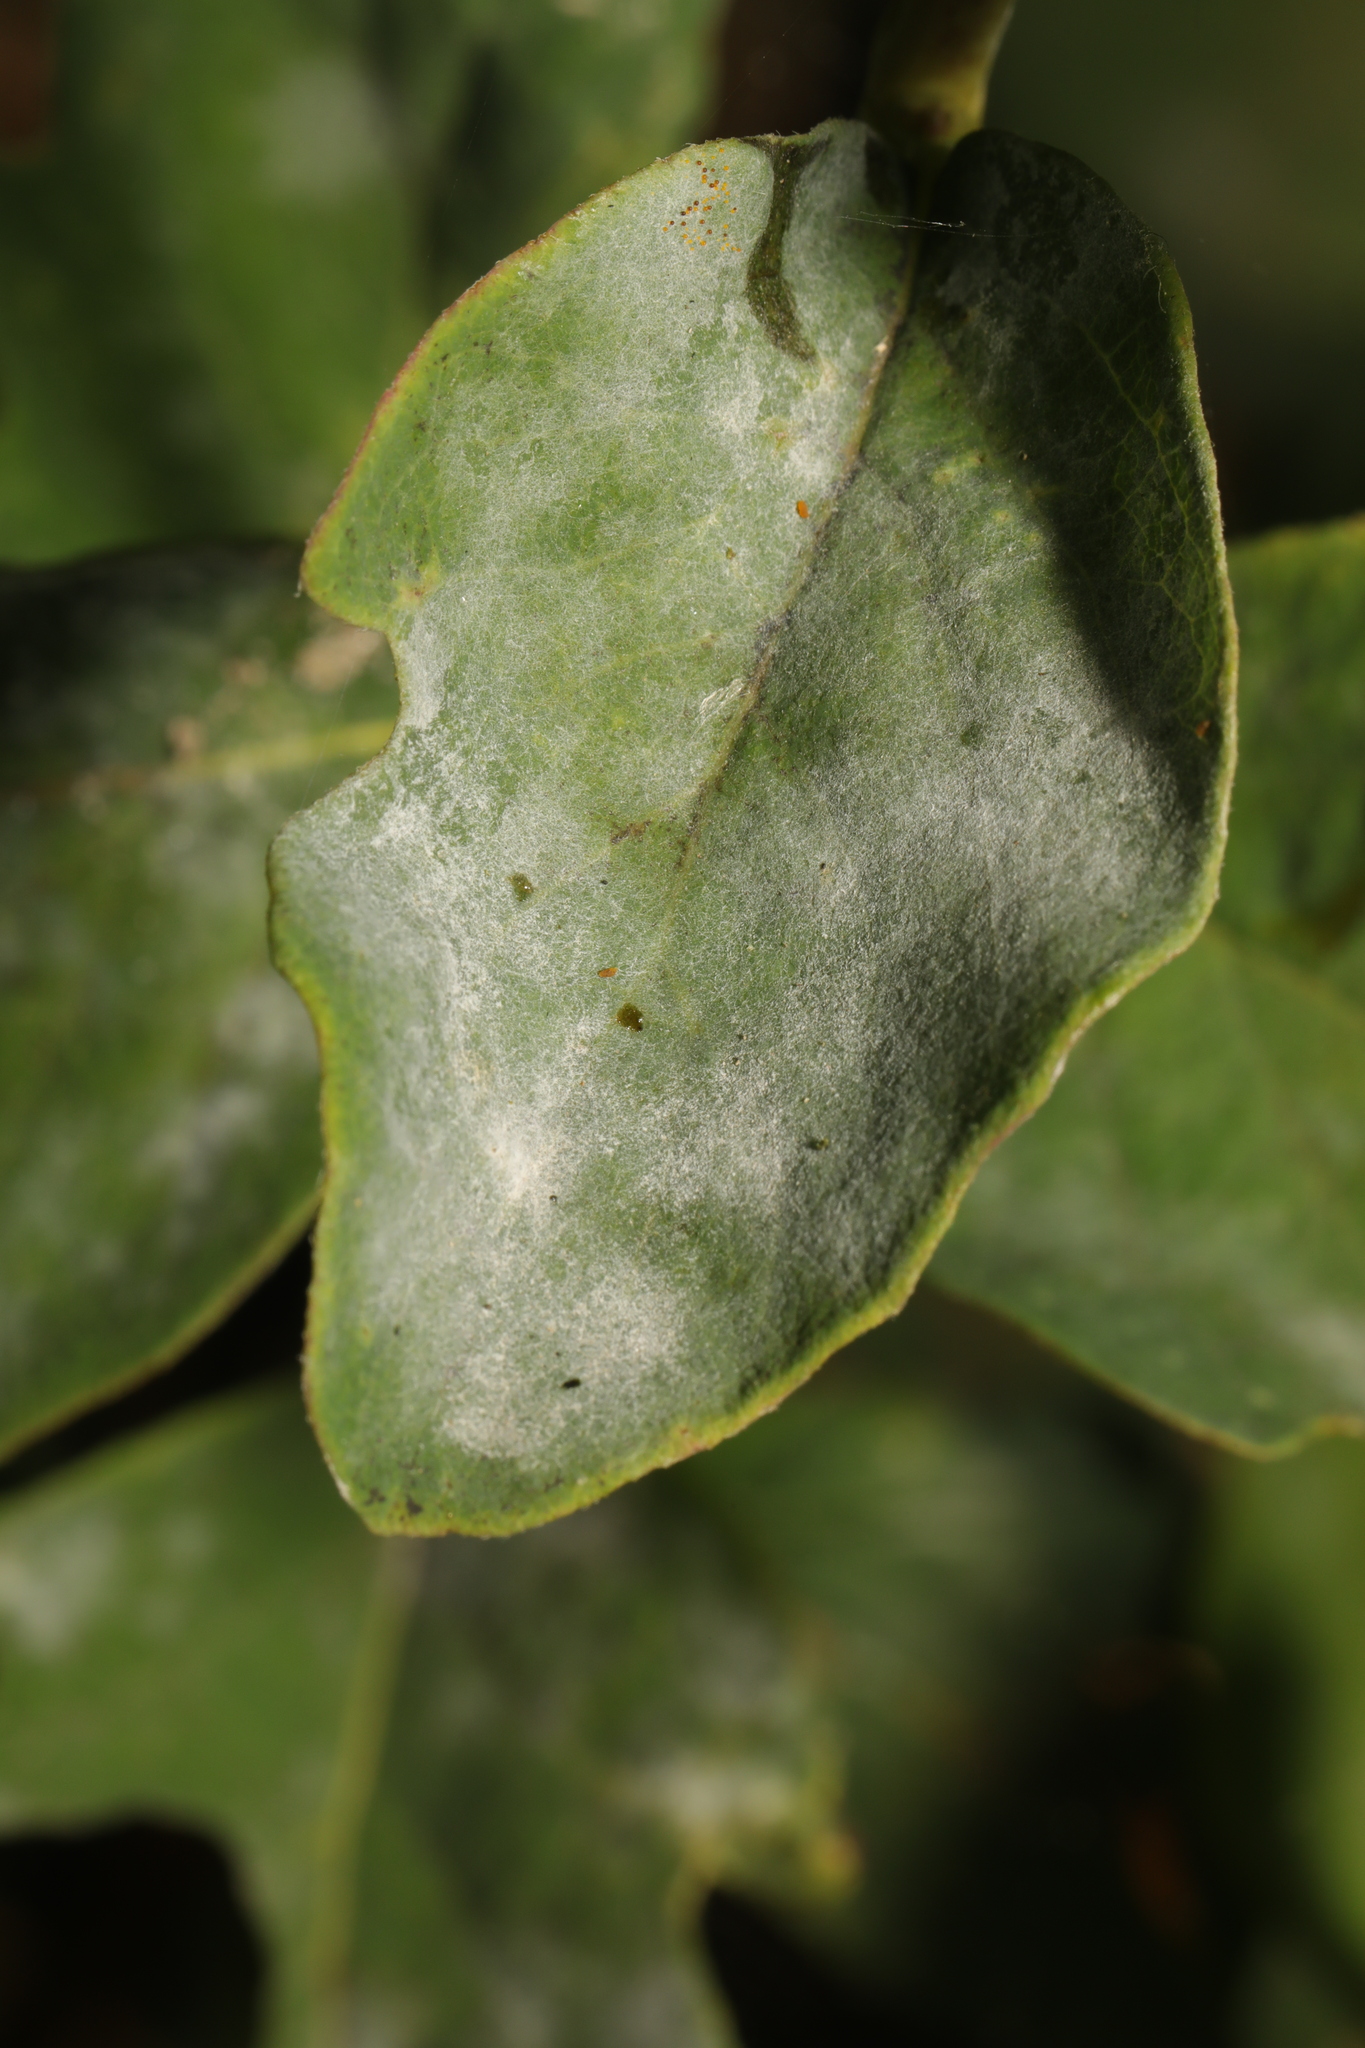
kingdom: Fungi
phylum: Ascomycota
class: Leotiomycetes
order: Helotiales
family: Erysiphaceae
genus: Erysiphe
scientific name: Erysiphe symphoricarpi
